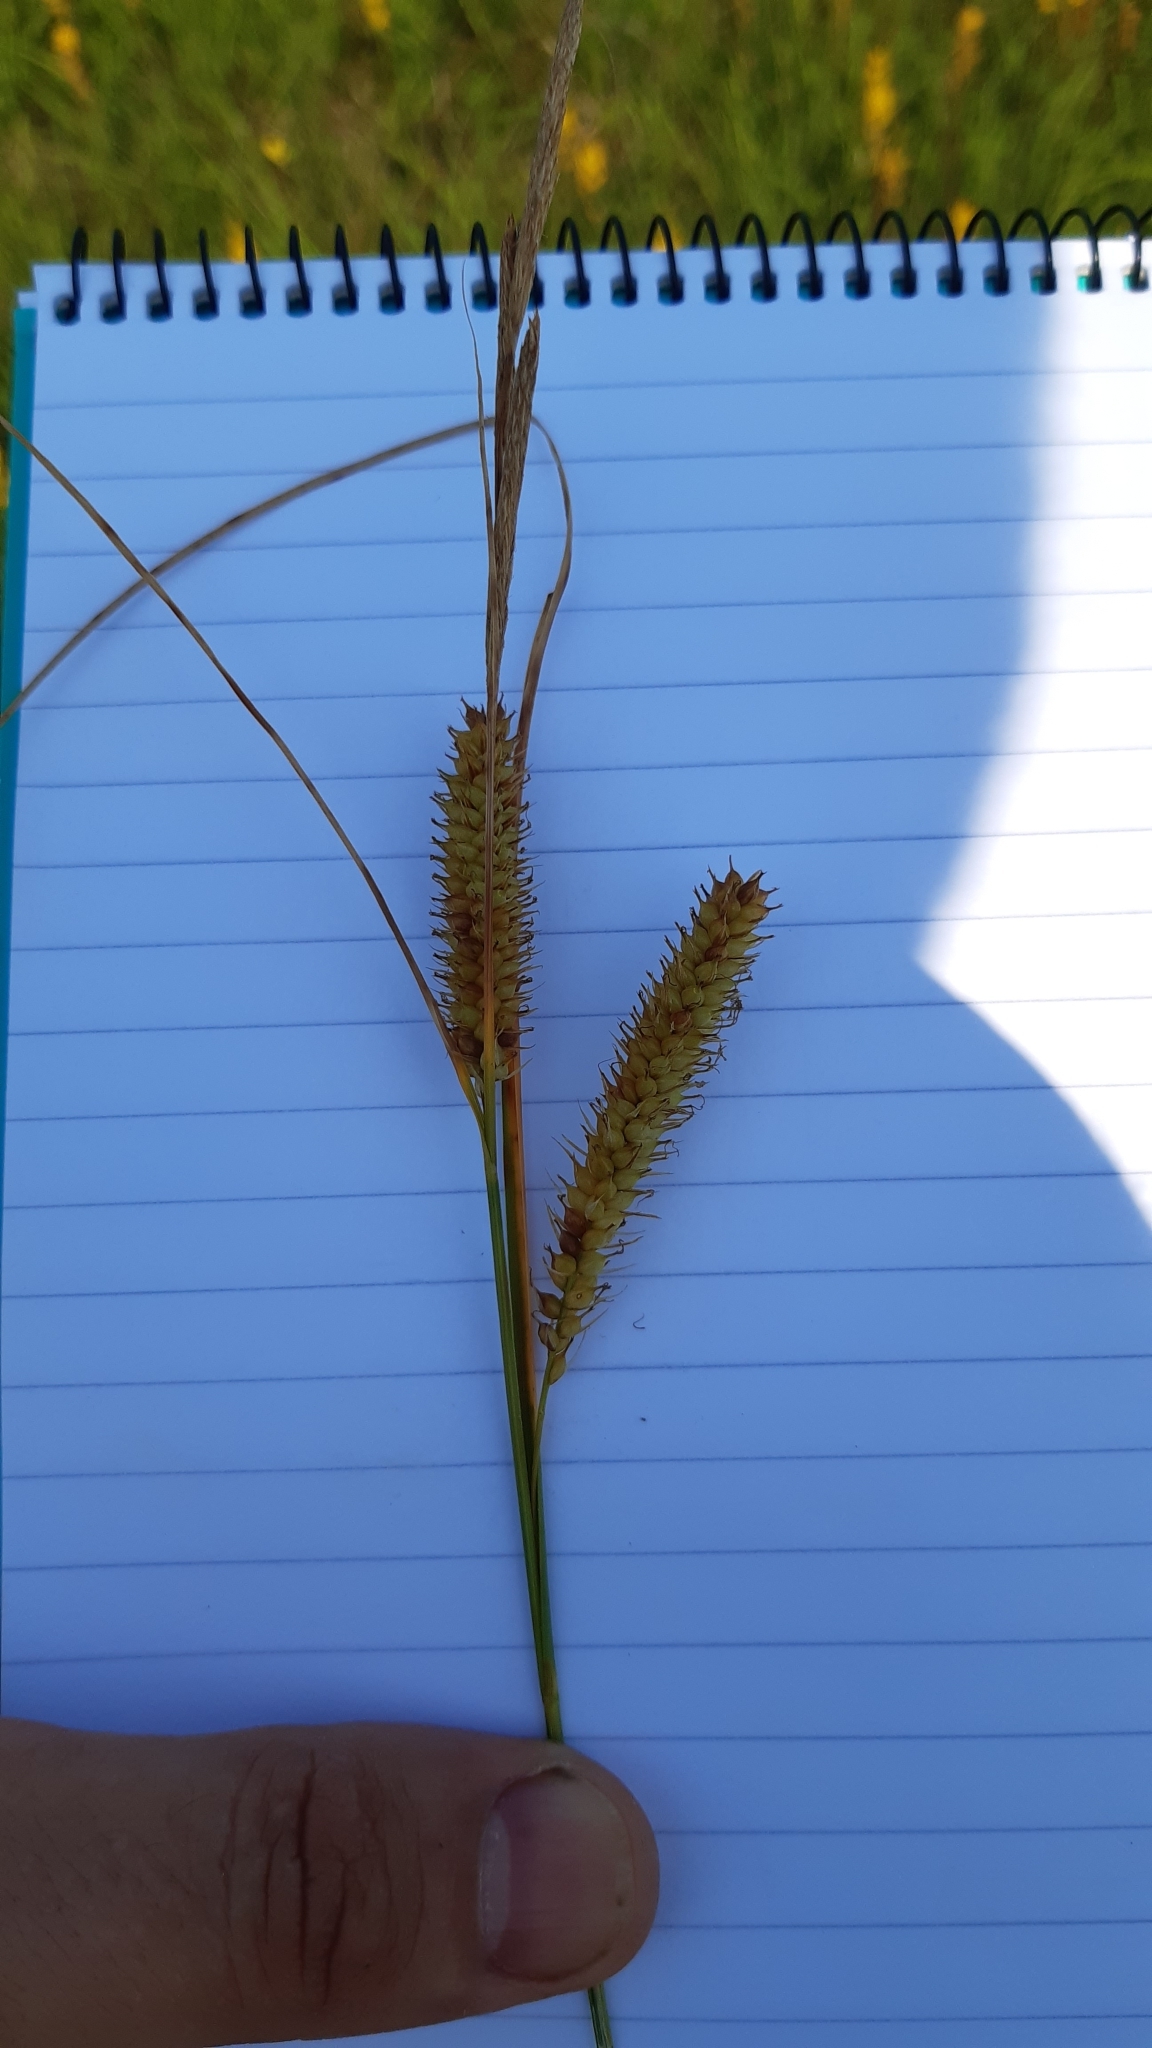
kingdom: Plantae
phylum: Tracheophyta
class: Liliopsida
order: Poales
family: Cyperaceae
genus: Carex
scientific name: Carex rostrata
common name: Bottle sedge
